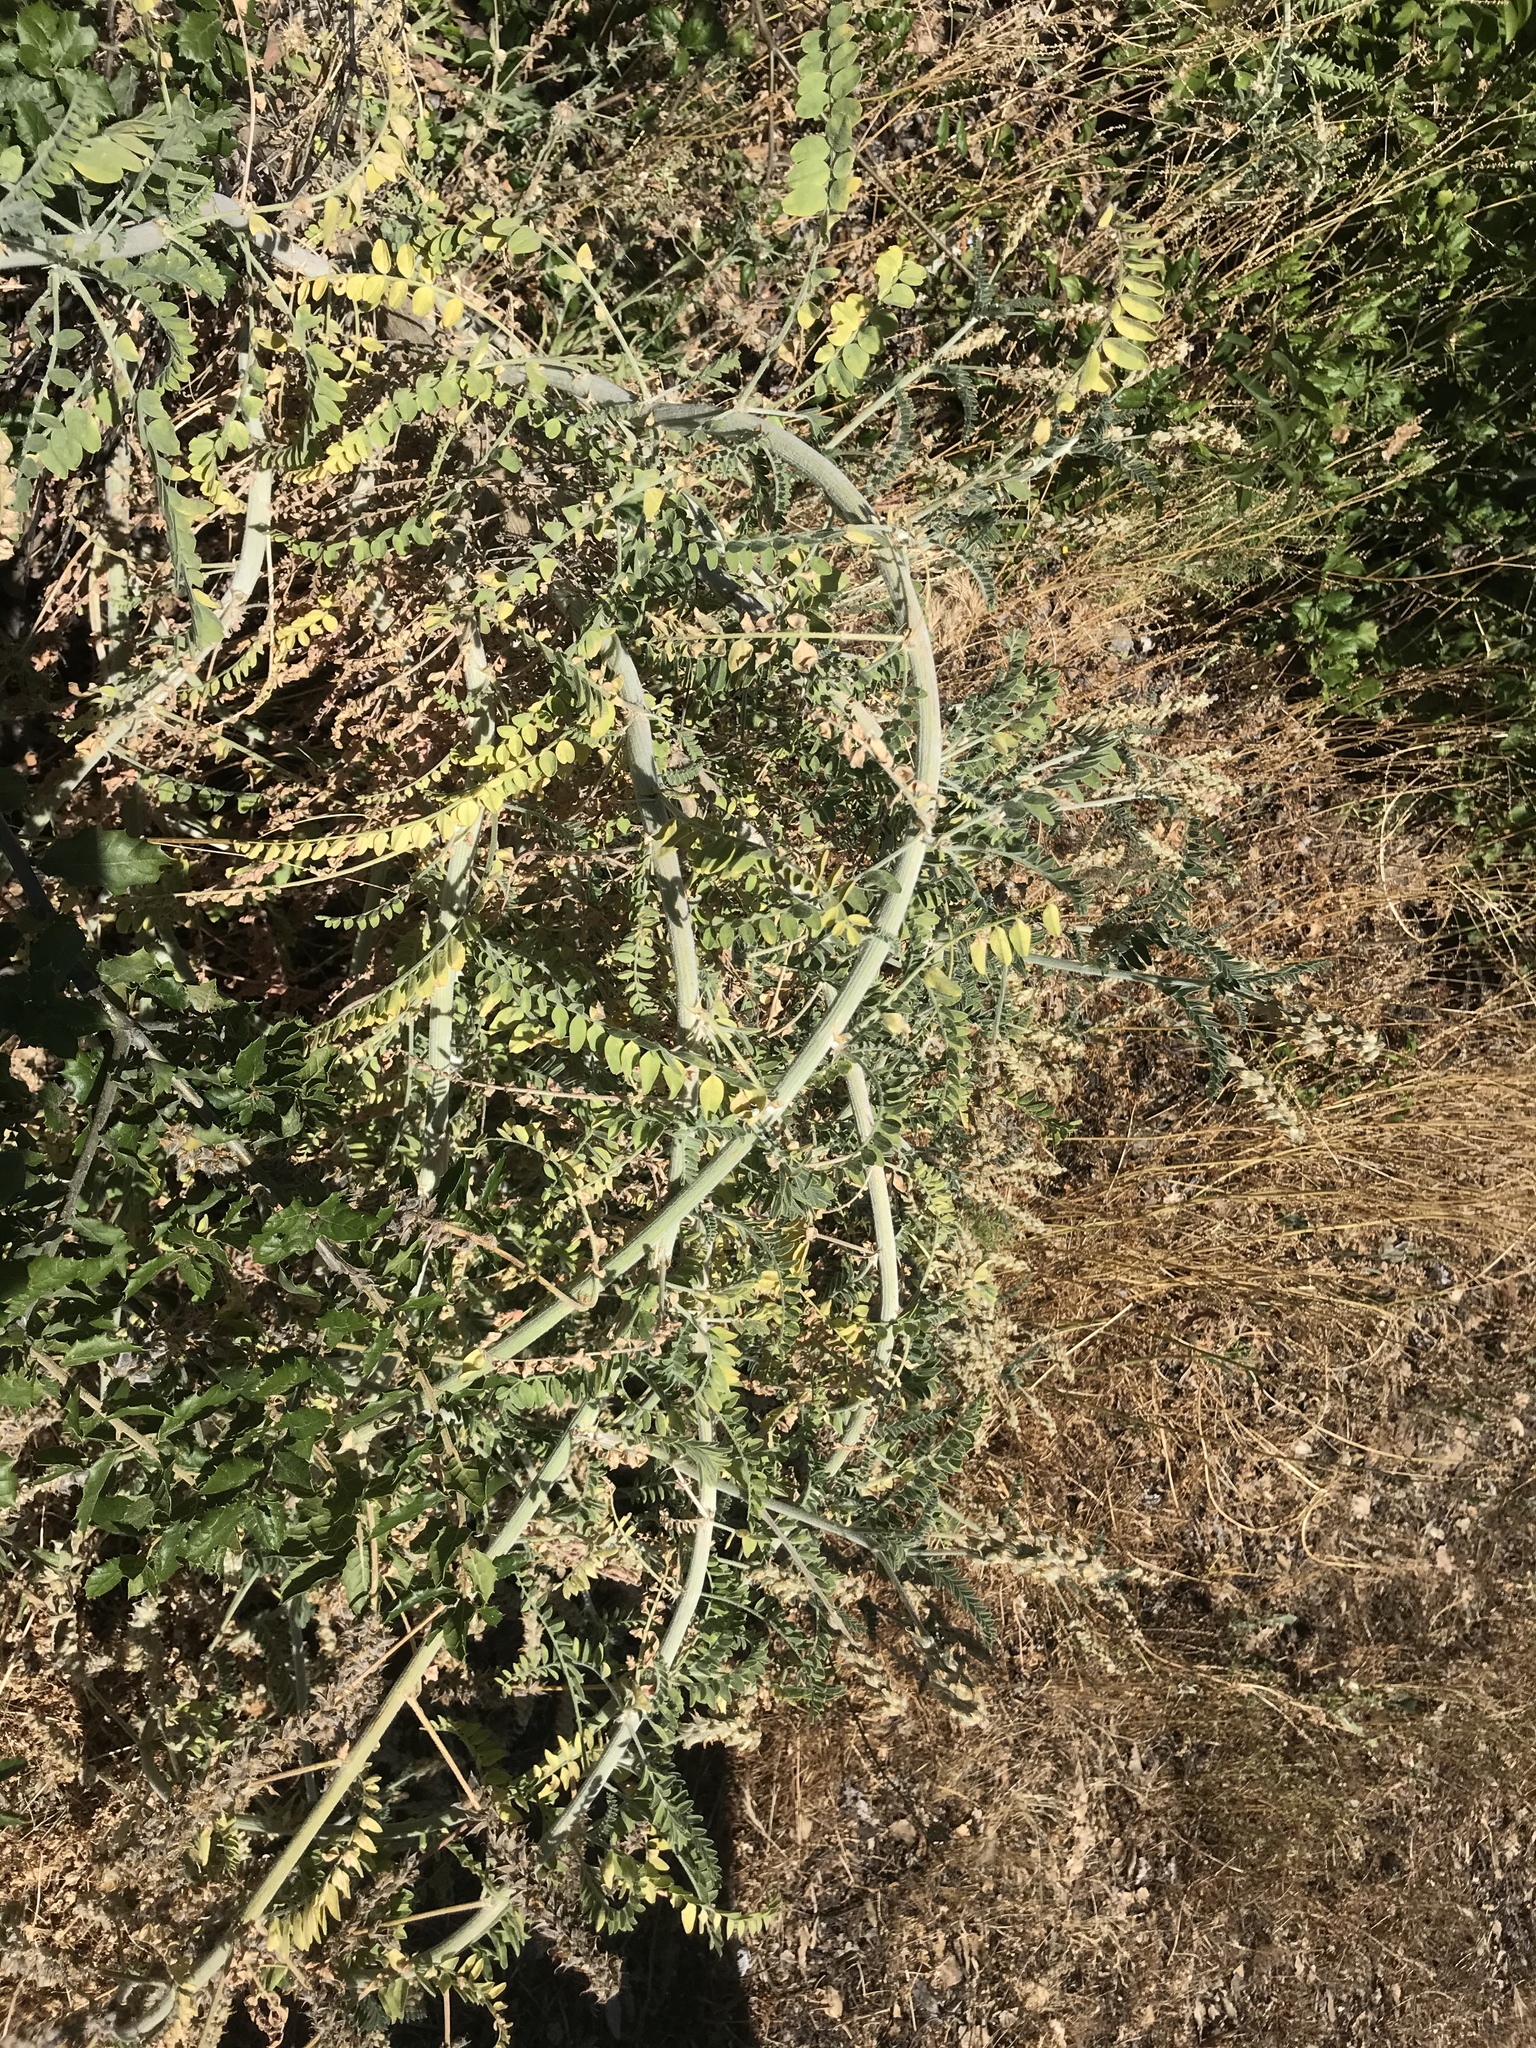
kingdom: Plantae
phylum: Tracheophyta
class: Magnoliopsida
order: Fabales
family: Fabaceae
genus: Astragalus
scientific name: Astragalus brauntonii
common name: Braunton's milk-vetch
